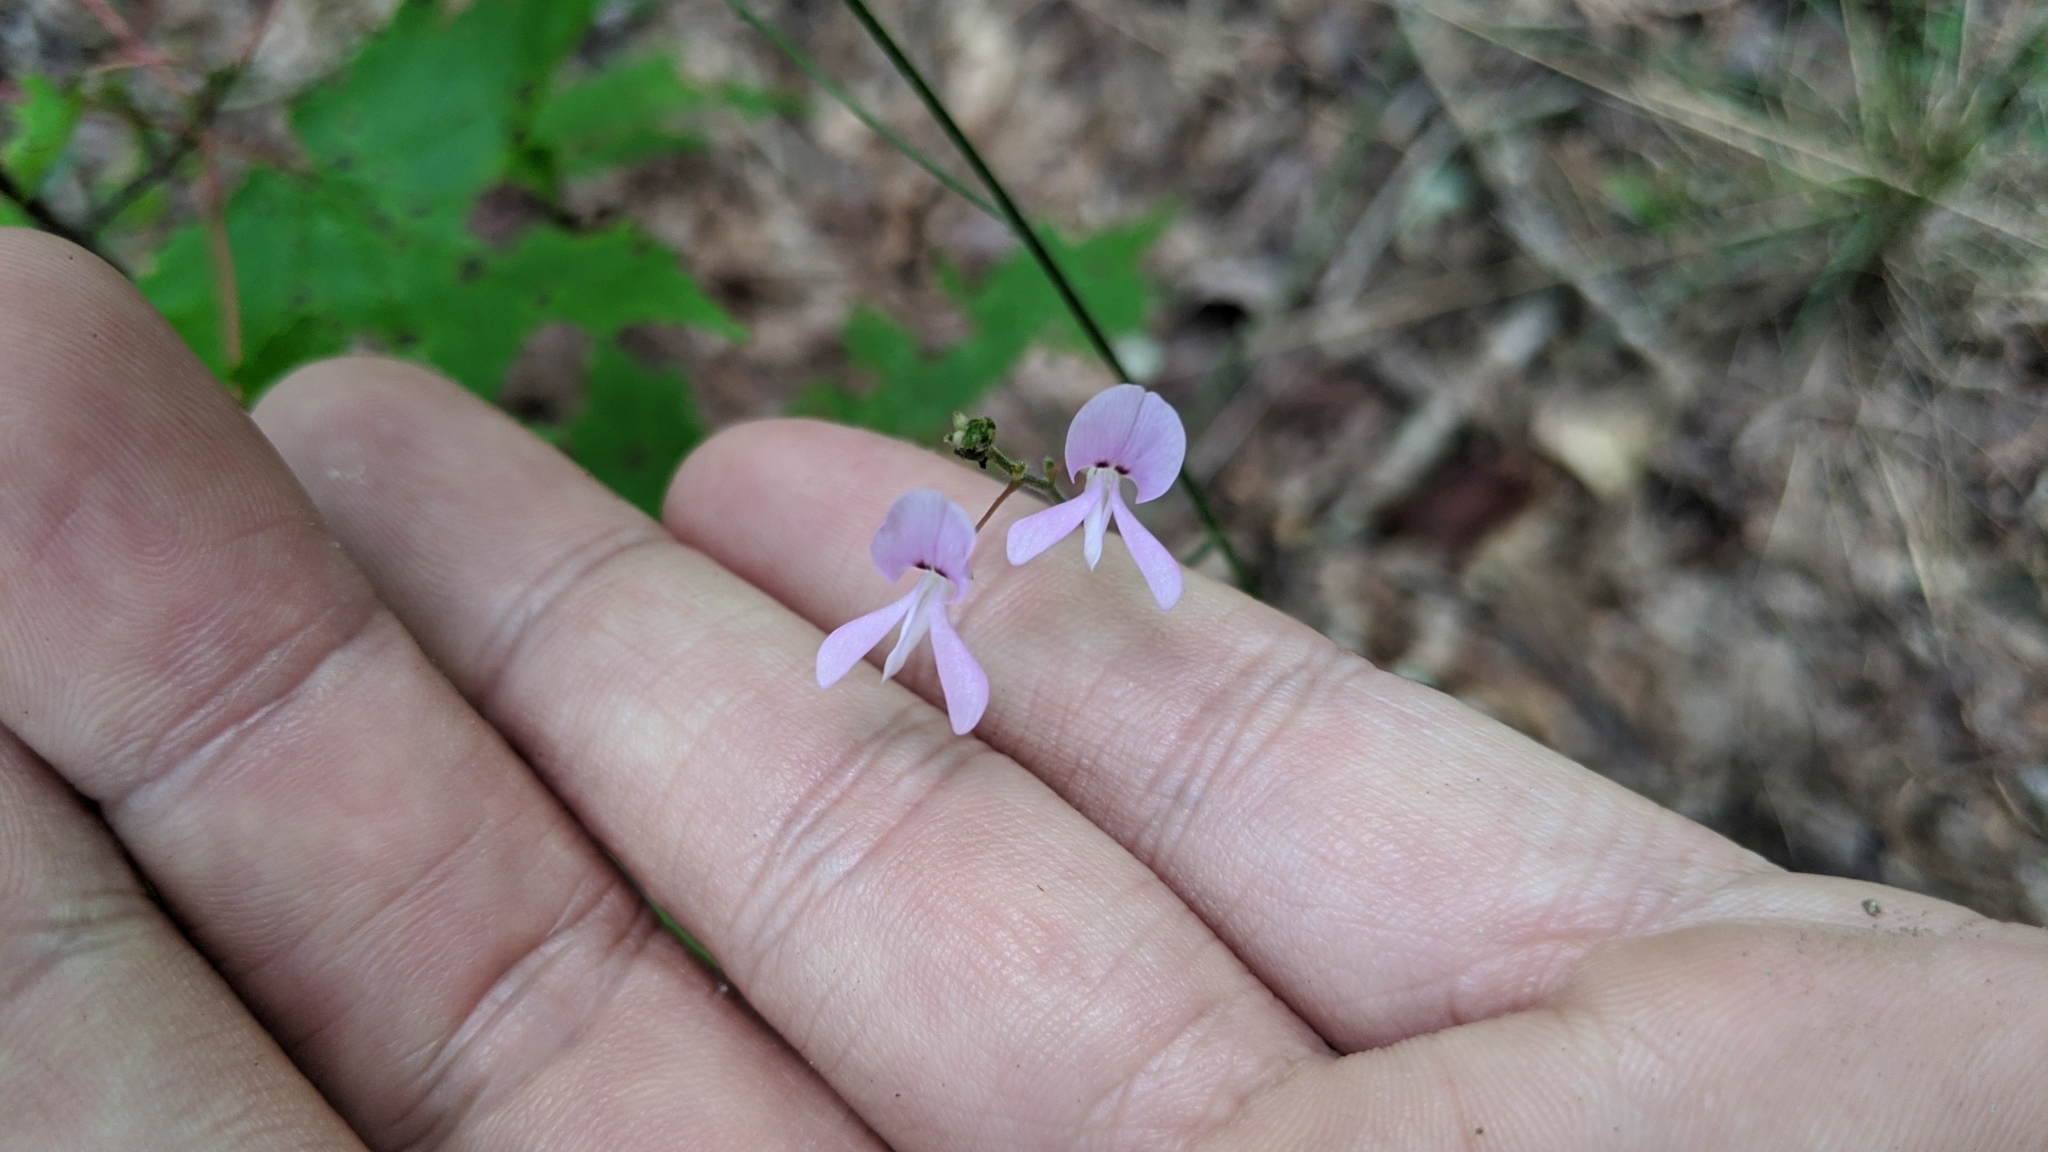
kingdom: Plantae
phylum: Tracheophyta
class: Magnoliopsida
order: Fabales
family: Fabaceae
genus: Hylodesmum
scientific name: Hylodesmum nudiflorum
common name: Bare-stemmed tick-trefoil
